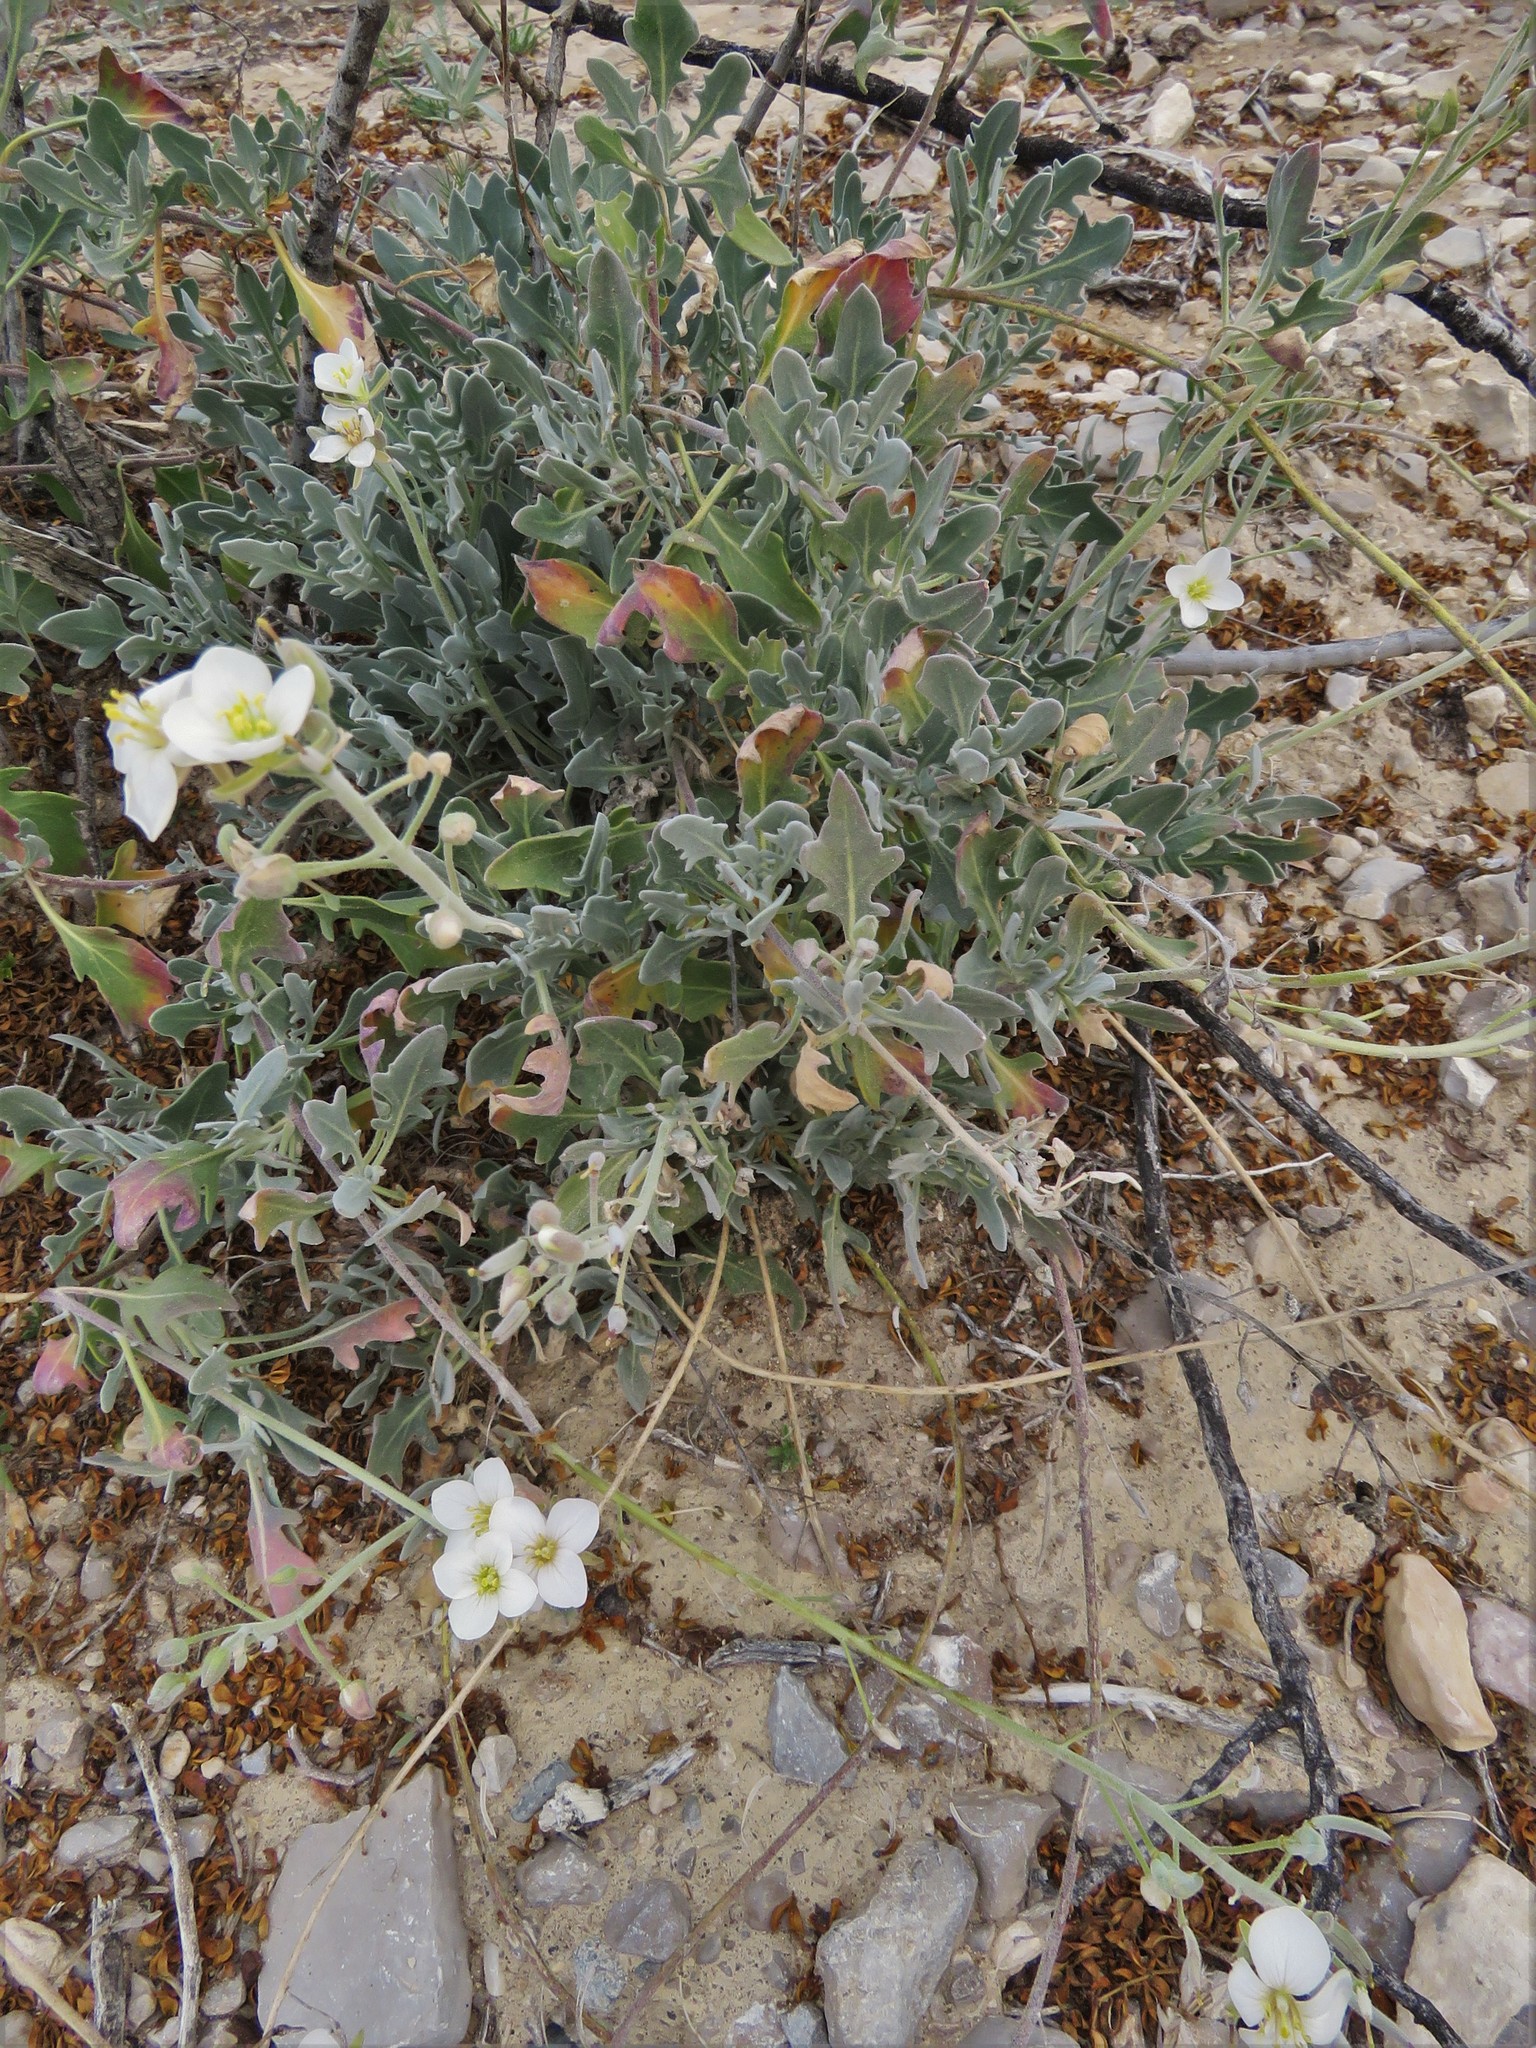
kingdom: Plantae
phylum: Tracheophyta
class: Magnoliopsida
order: Brassicales
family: Brassicaceae
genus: Nerisyrenia
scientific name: Nerisyrenia camporum
